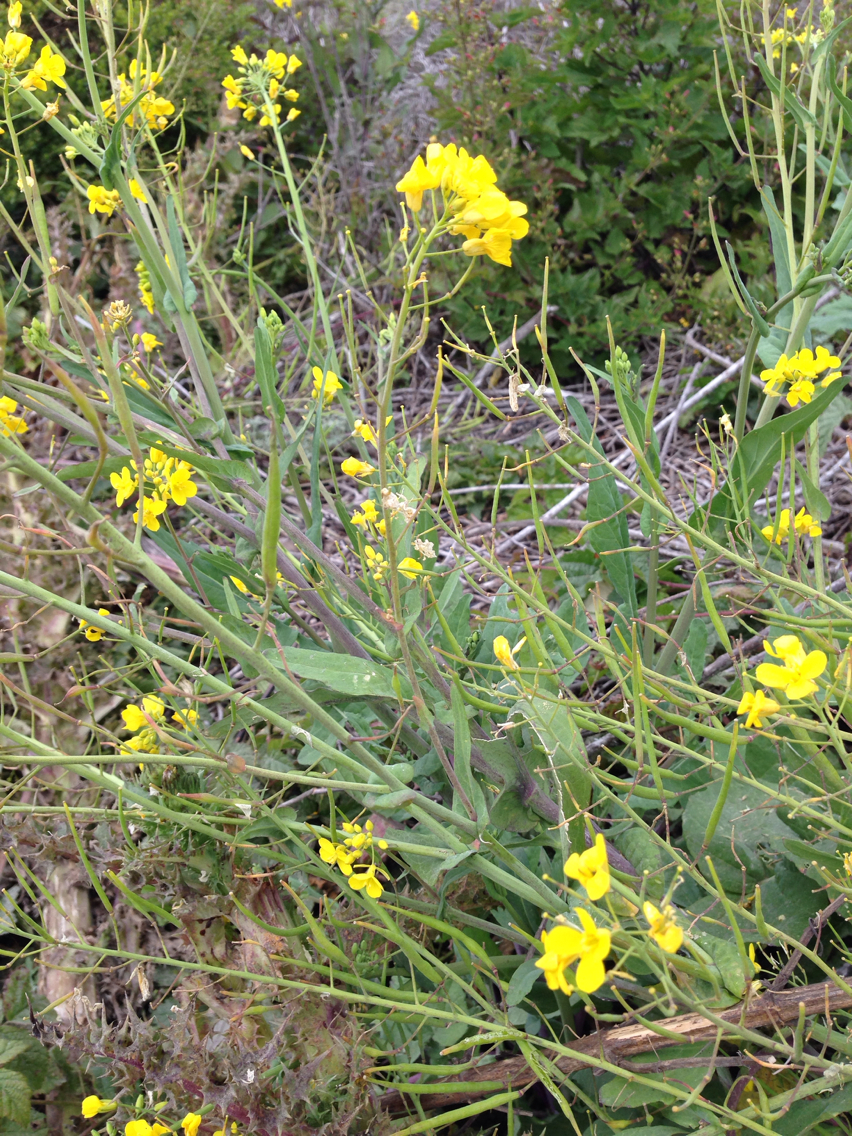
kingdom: Plantae
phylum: Tracheophyta
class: Magnoliopsida
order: Brassicales
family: Brassicaceae
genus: Brassica
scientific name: Brassica rapa
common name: Field mustard
